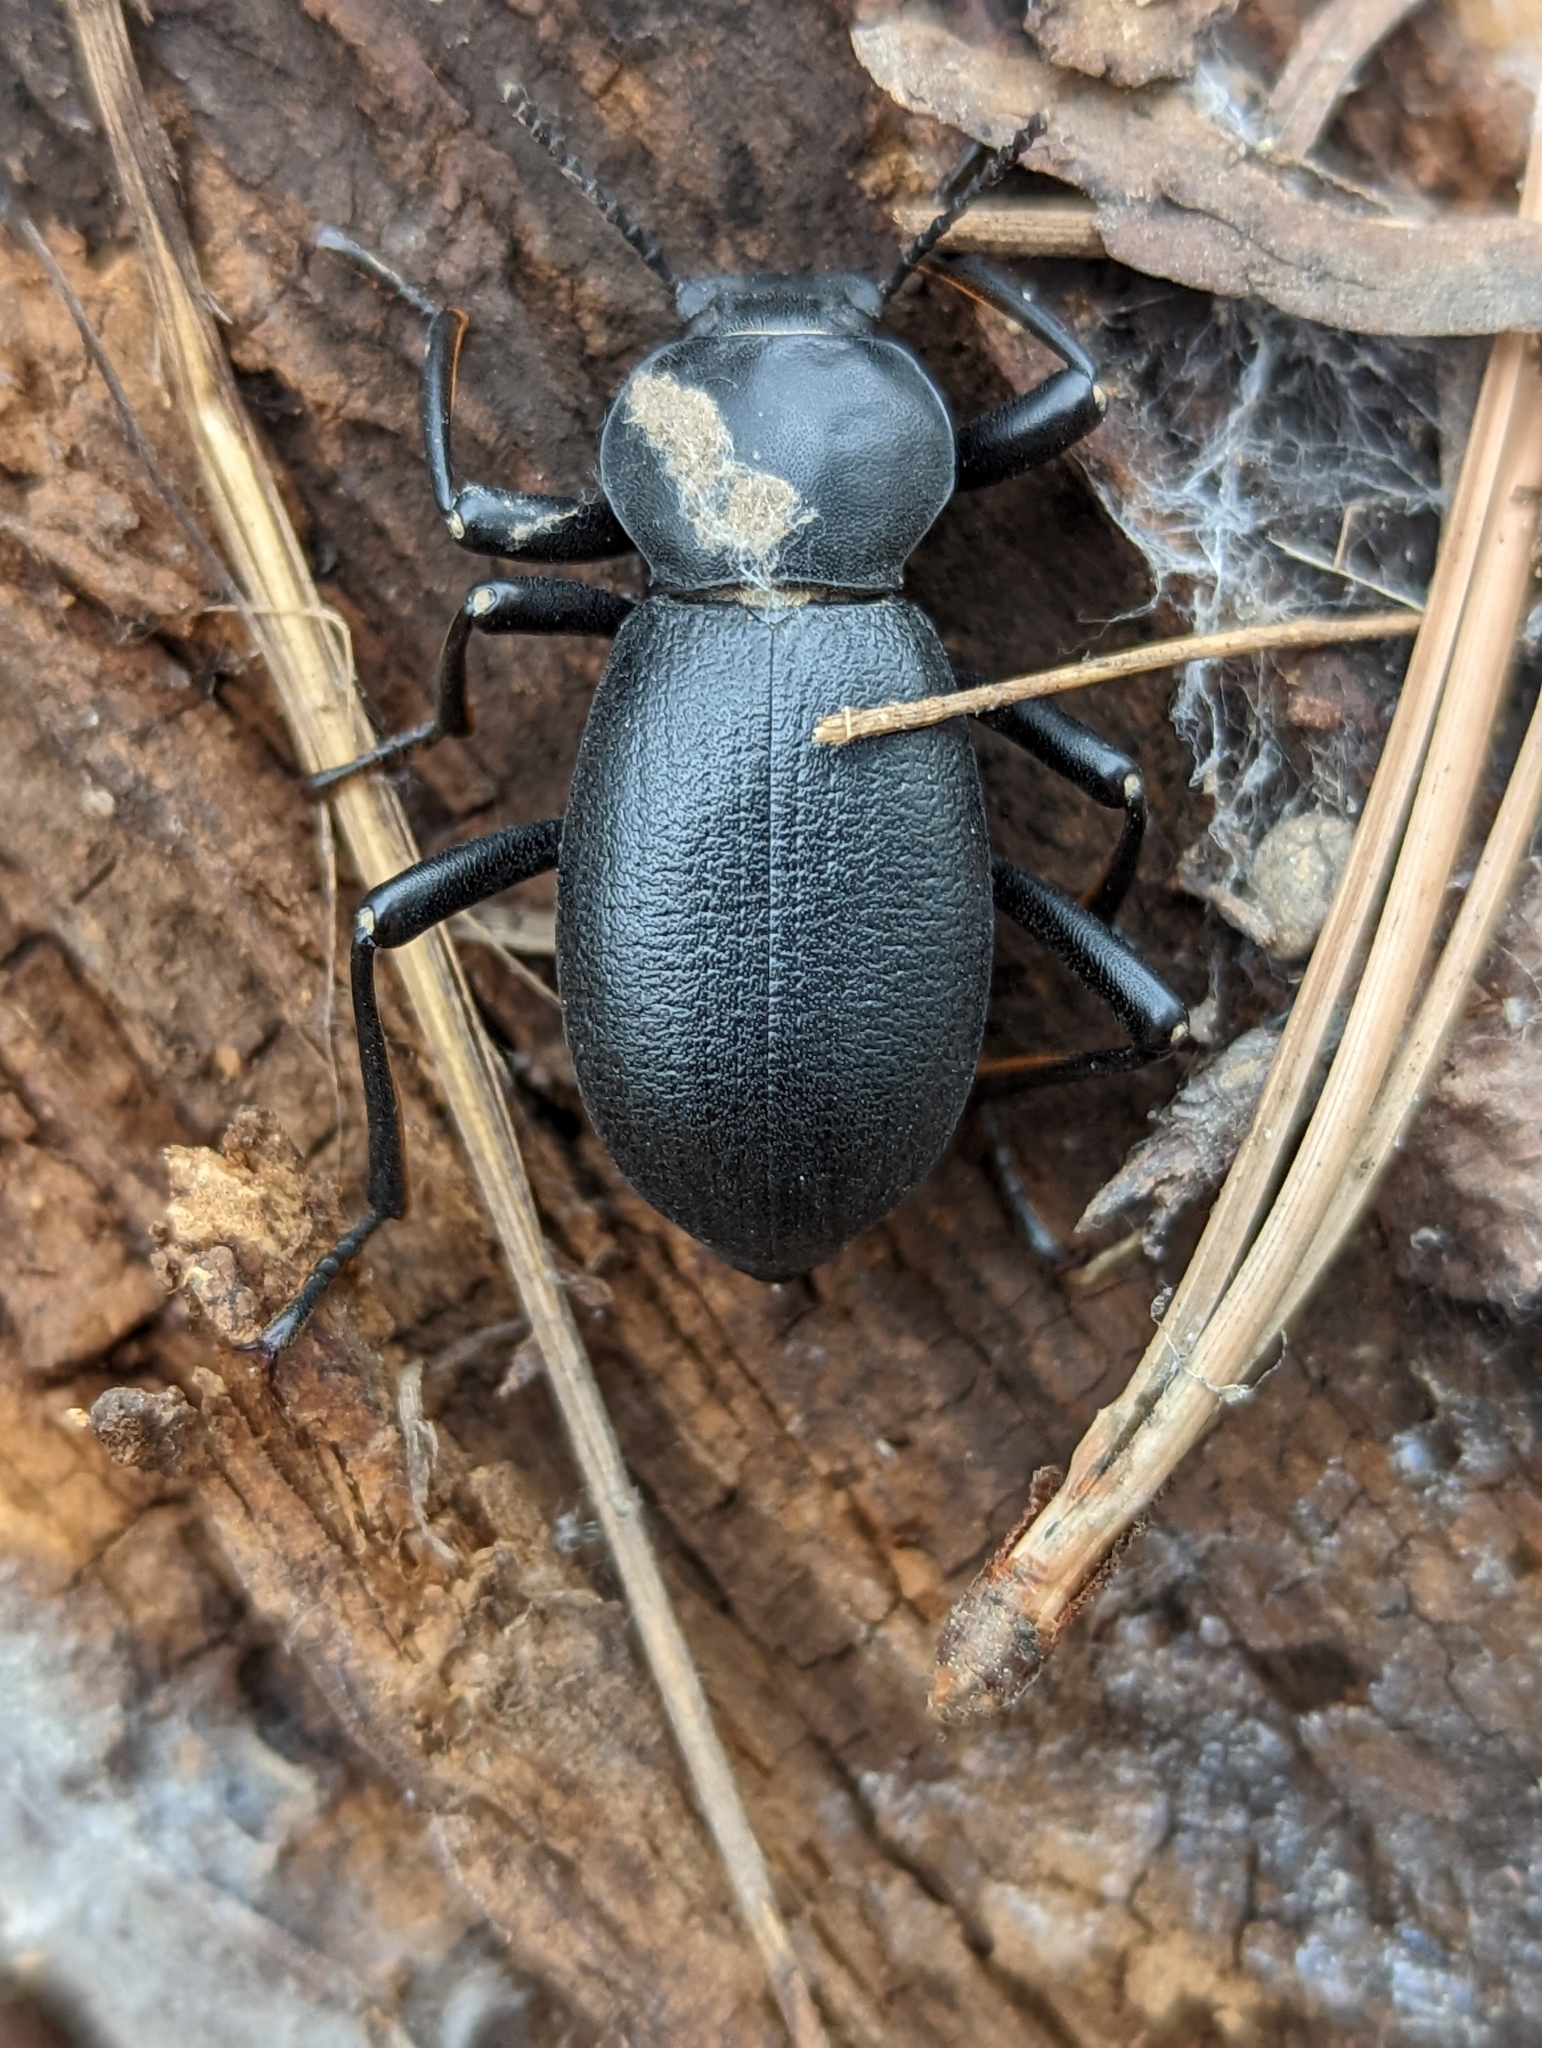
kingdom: Animalia
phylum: Arthropoda
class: Insecta
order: Coleoptera
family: Tenebrionidae
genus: Coelocnemis
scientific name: Coelocnemis dilaticollis
